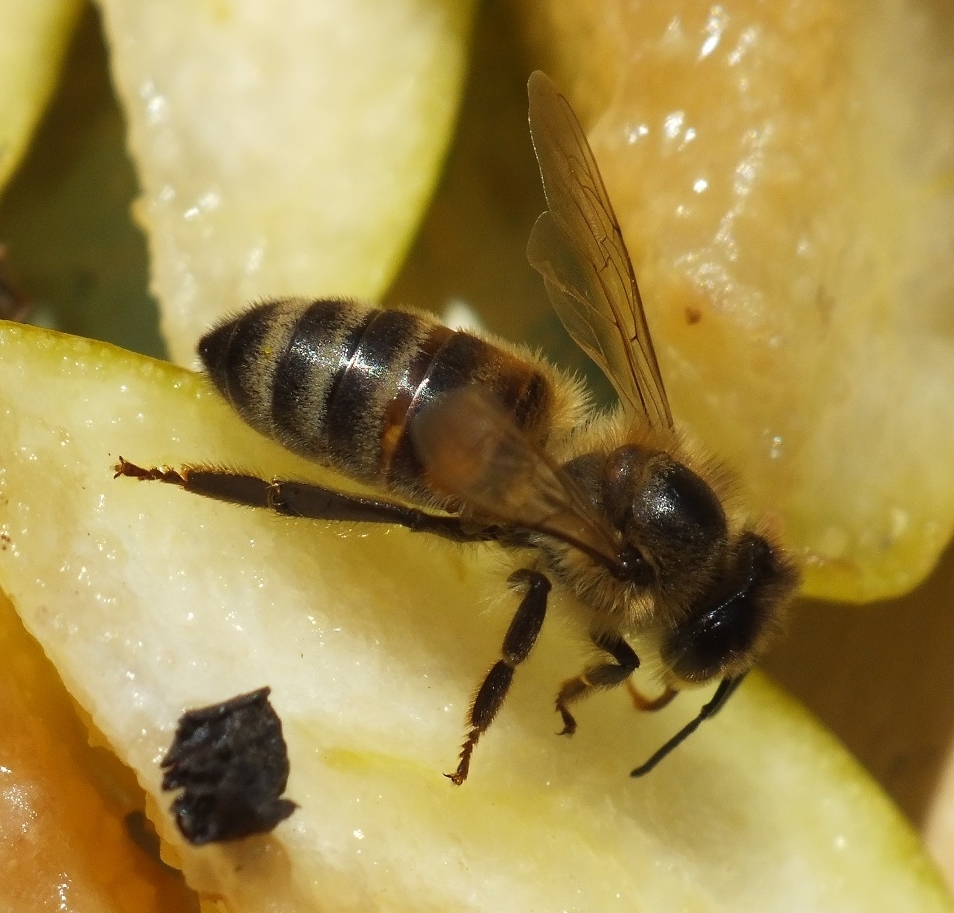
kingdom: Animalia
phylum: Arthropoda
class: Insecta
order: Hymenoptera
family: Apidae
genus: Apis
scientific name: Apis mellifera
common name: Honey bee
